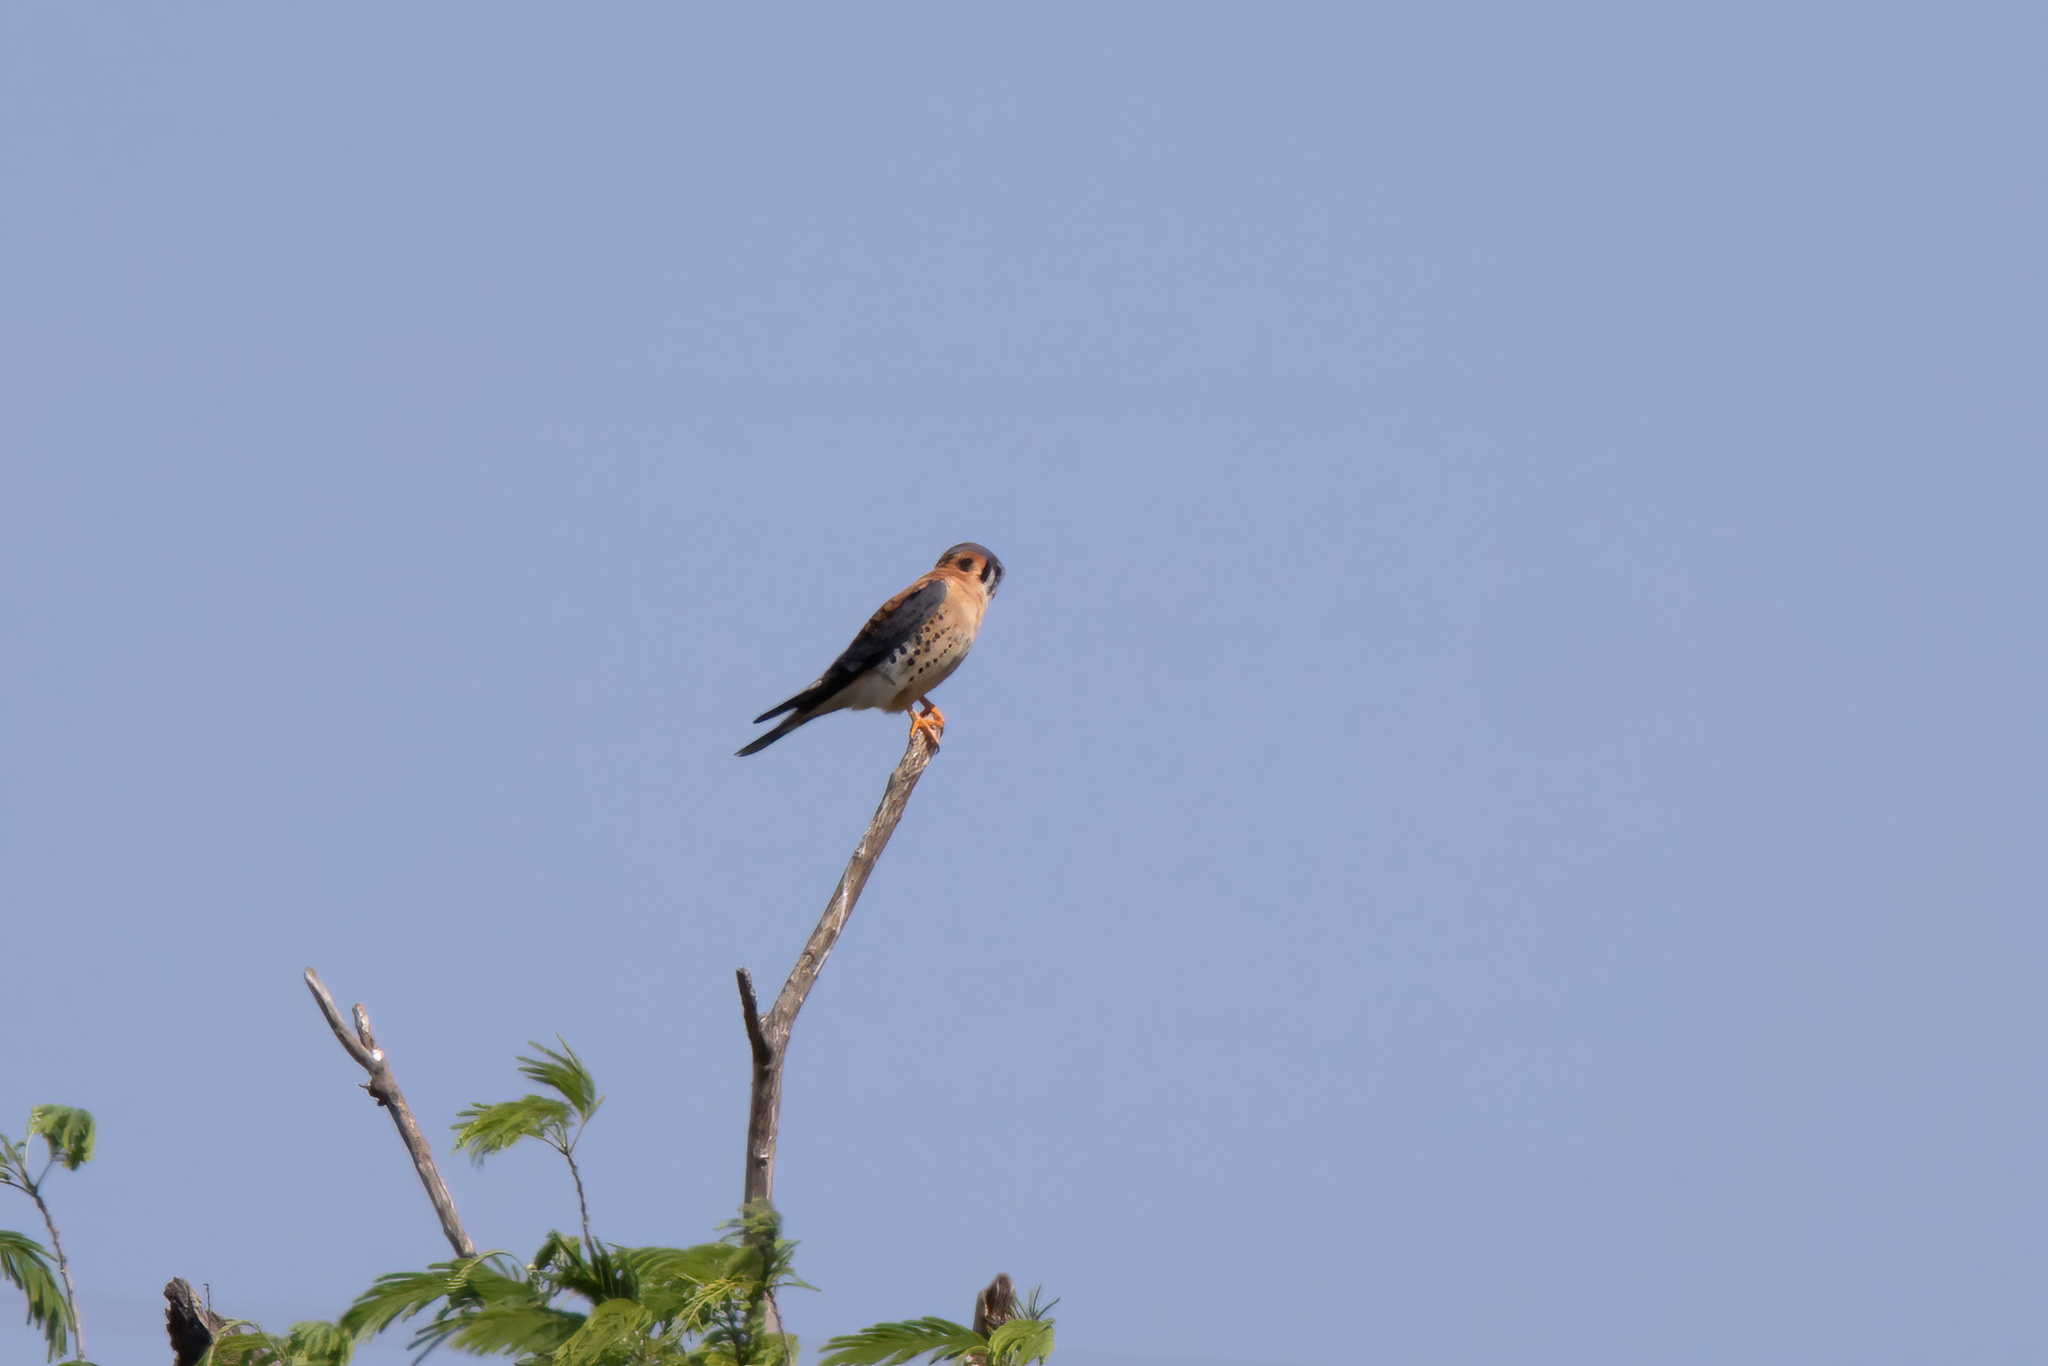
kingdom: Animalia
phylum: Chordata
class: Aves
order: Falconiformes
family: Falconidae
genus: Falco
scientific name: Falco sparverius
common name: American kestrel
